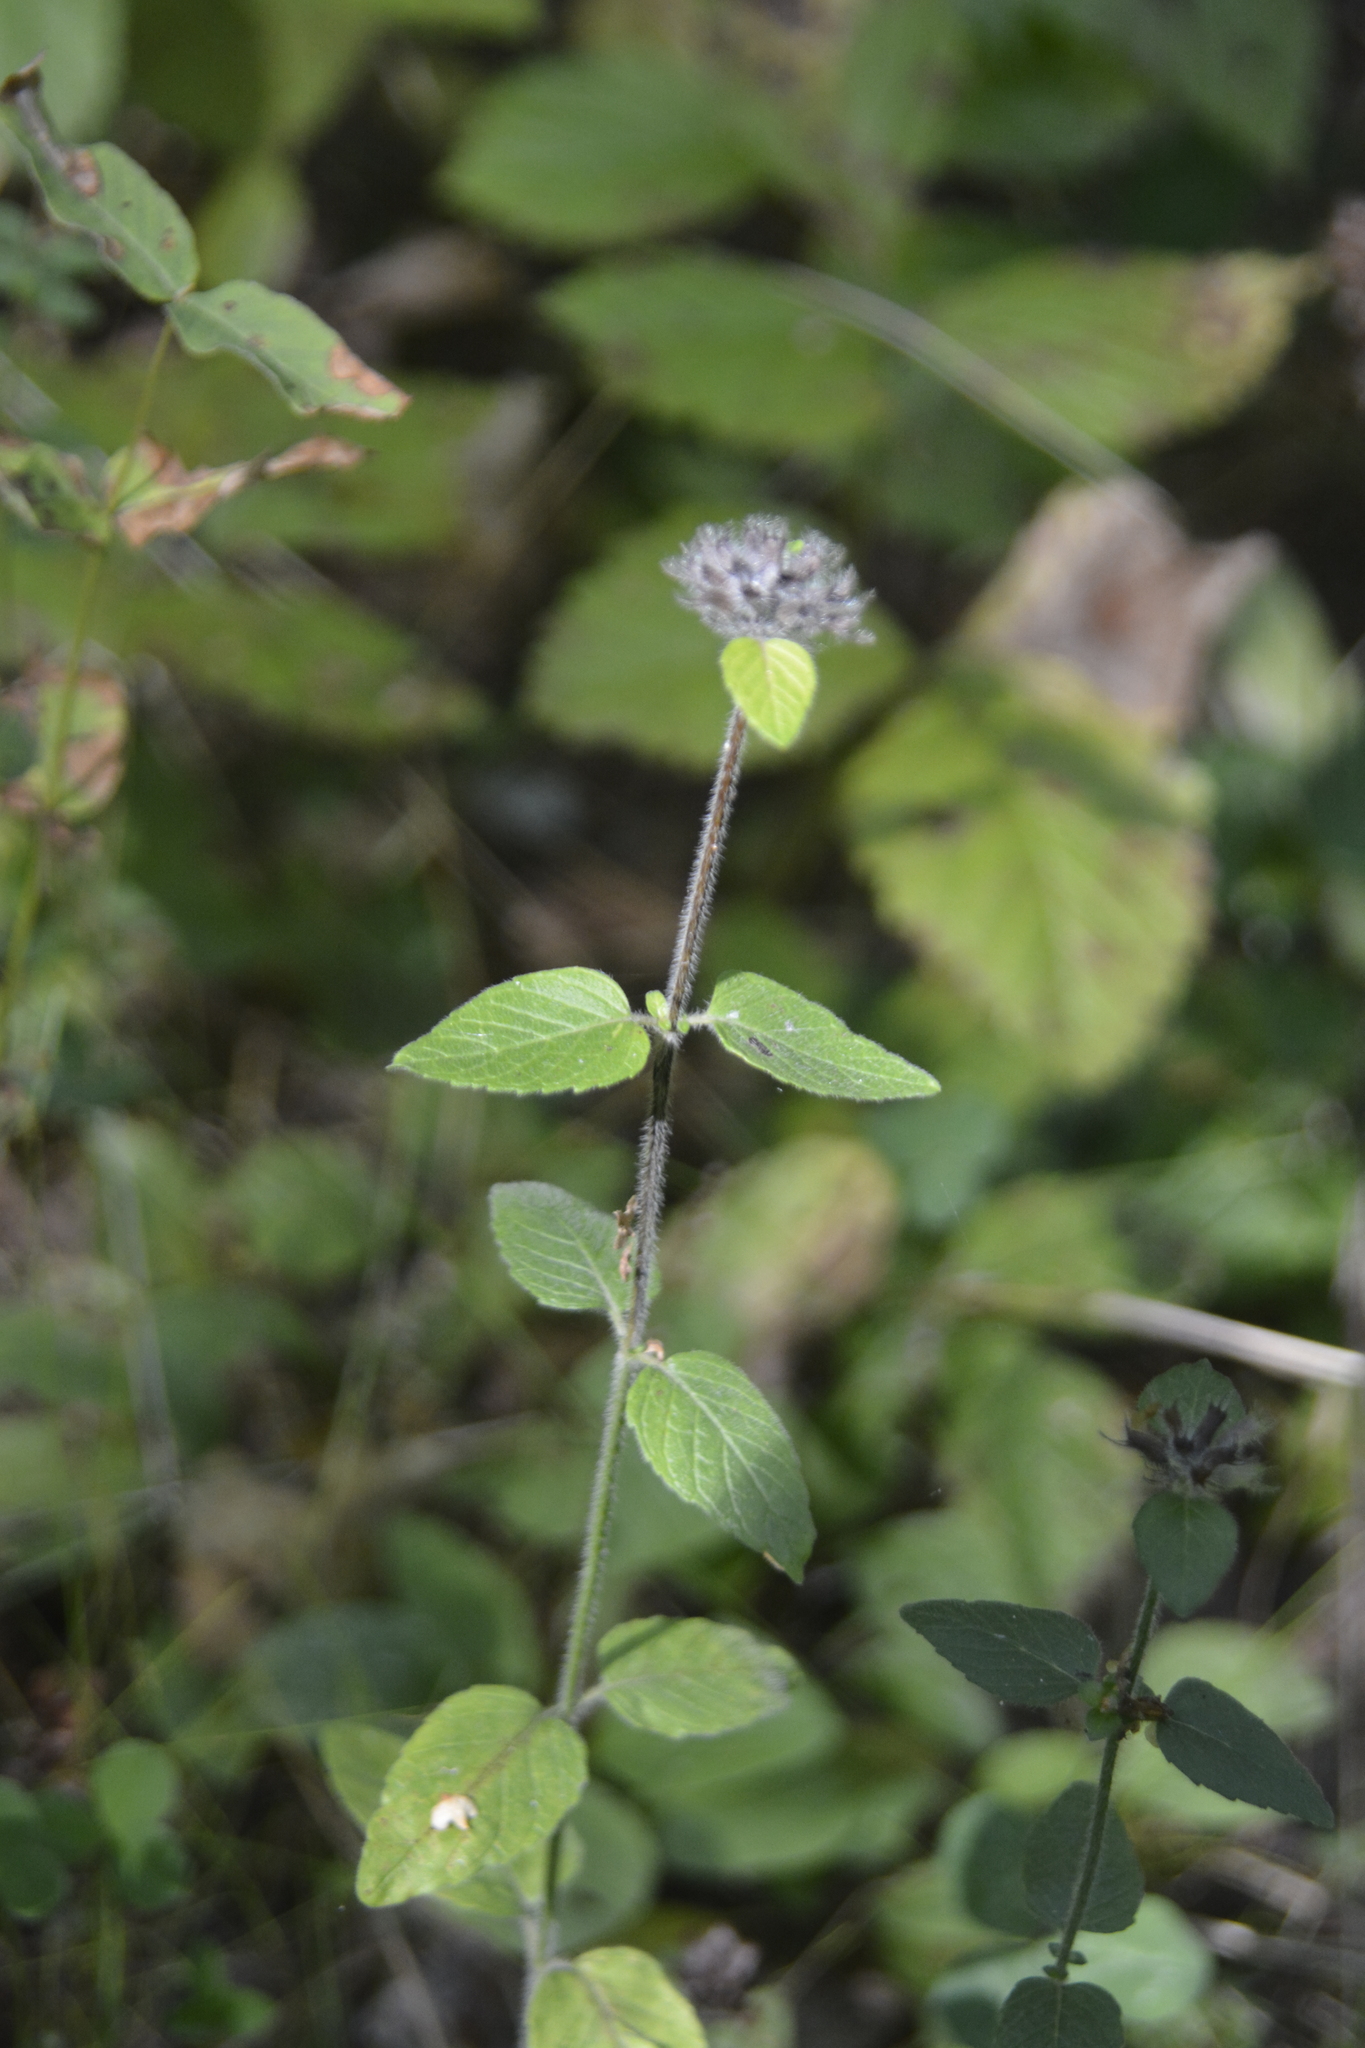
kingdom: Plantae
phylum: Tracheophyta
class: Magnoliopsida
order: Lamiales
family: Lamiaceae
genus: Clinopodium
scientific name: Clinopodium vulgare
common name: Wild basil
